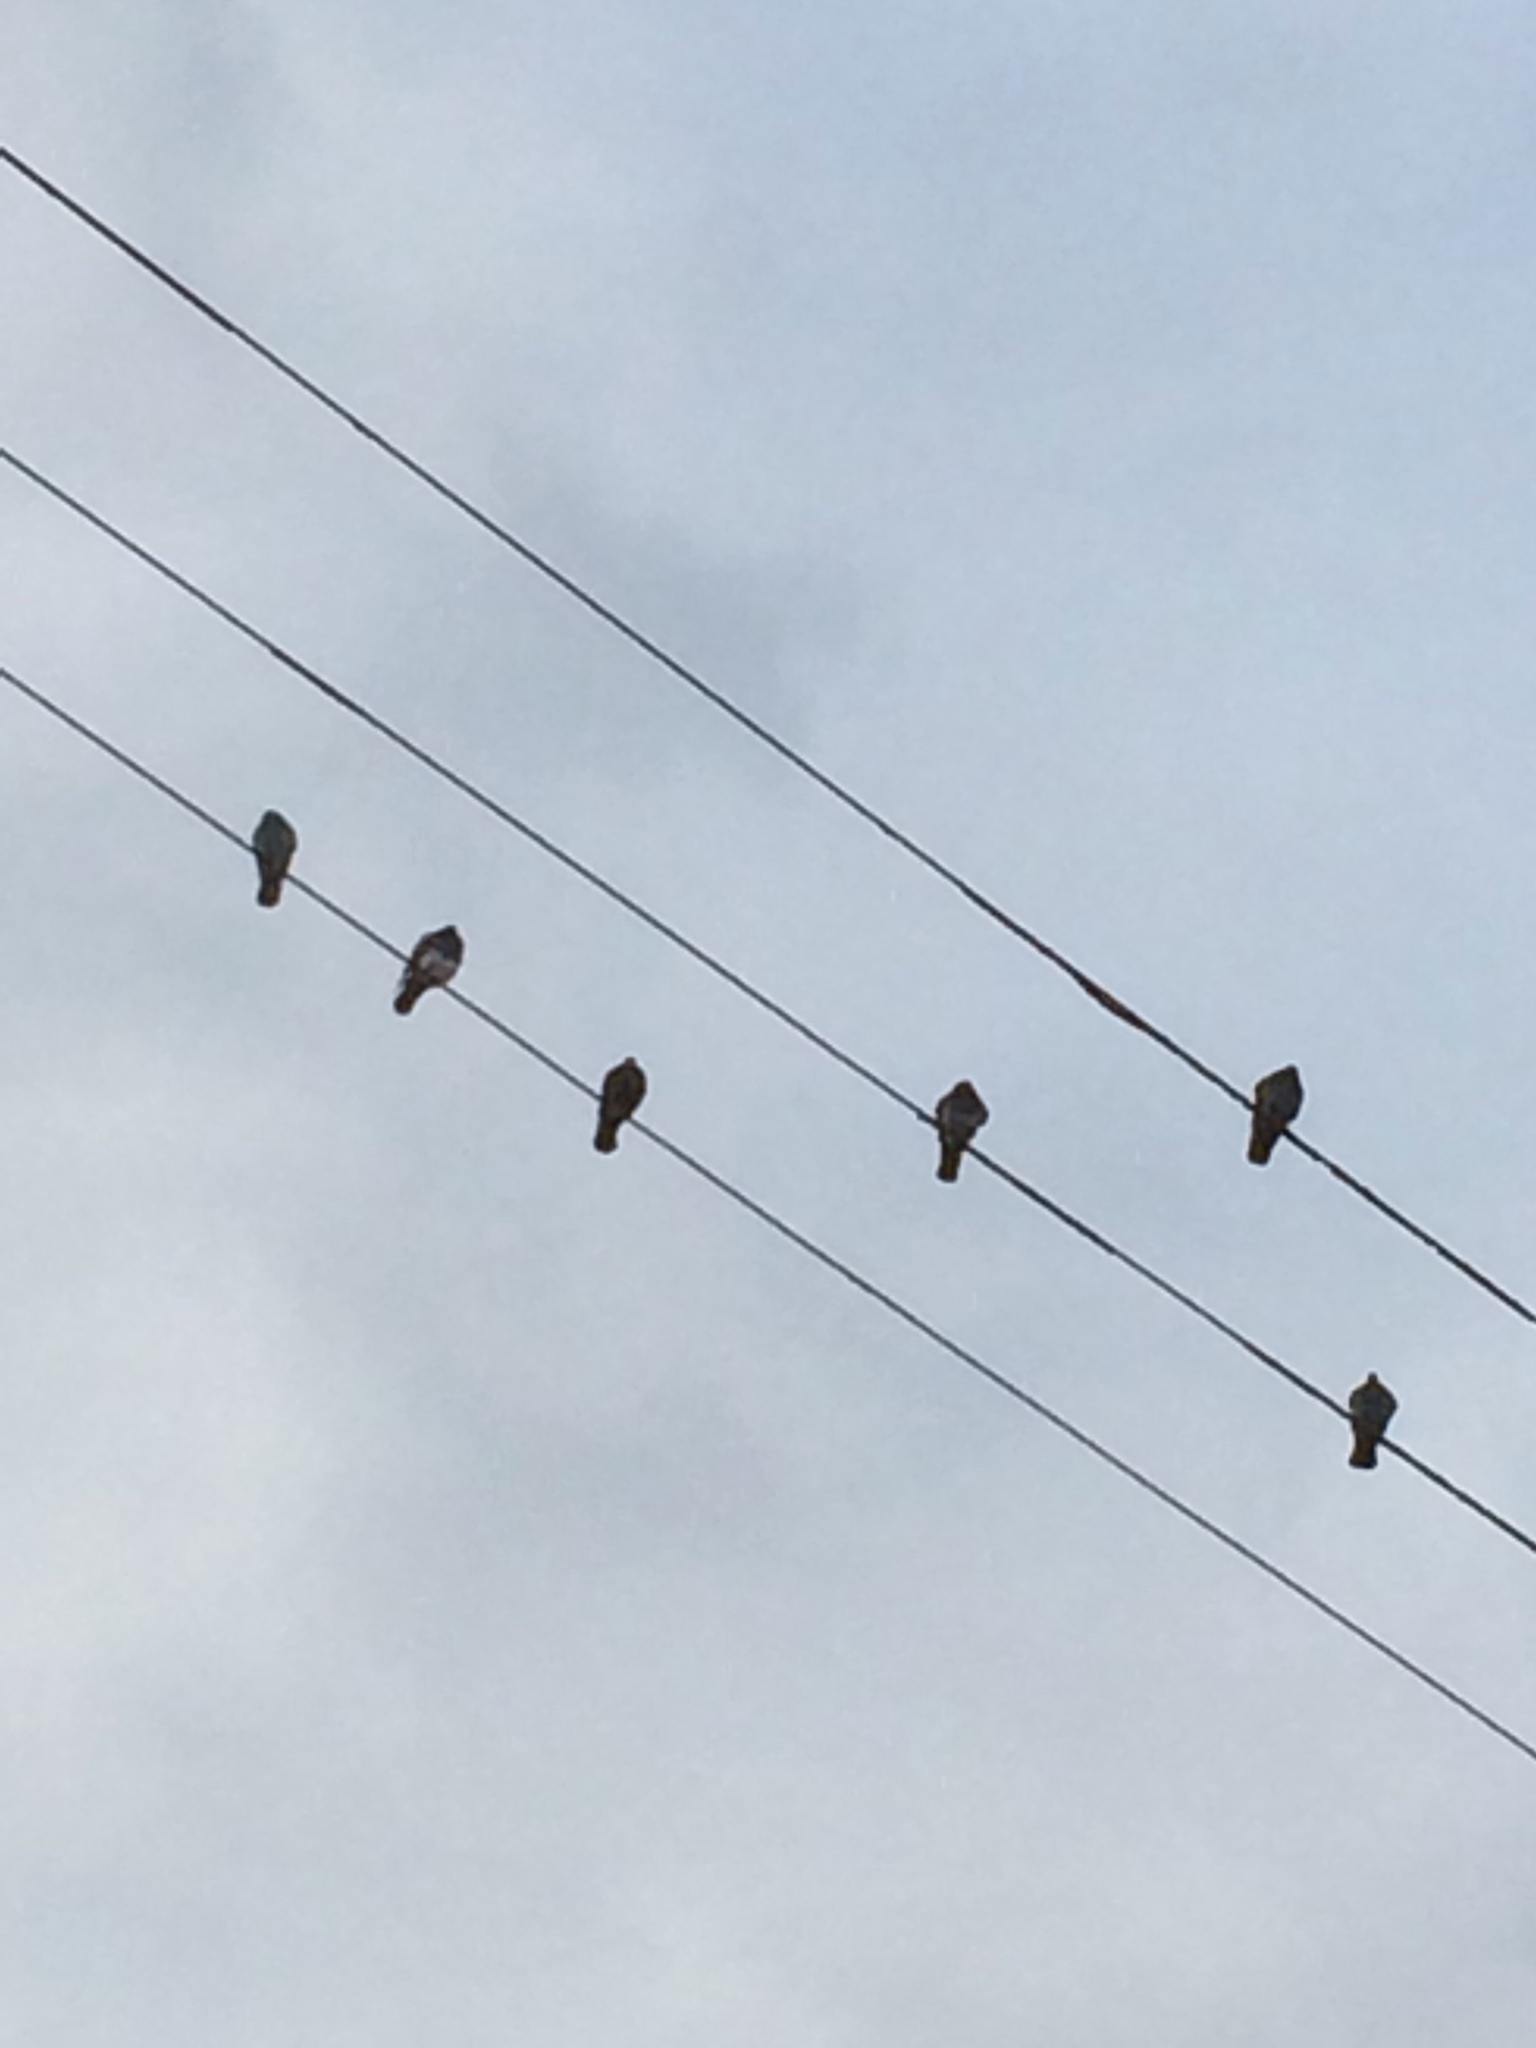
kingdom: Animalia
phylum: Chordata
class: Aves
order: Columbiformes
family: Columbidae
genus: Columba
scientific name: Columba livia
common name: Rock pigeon
